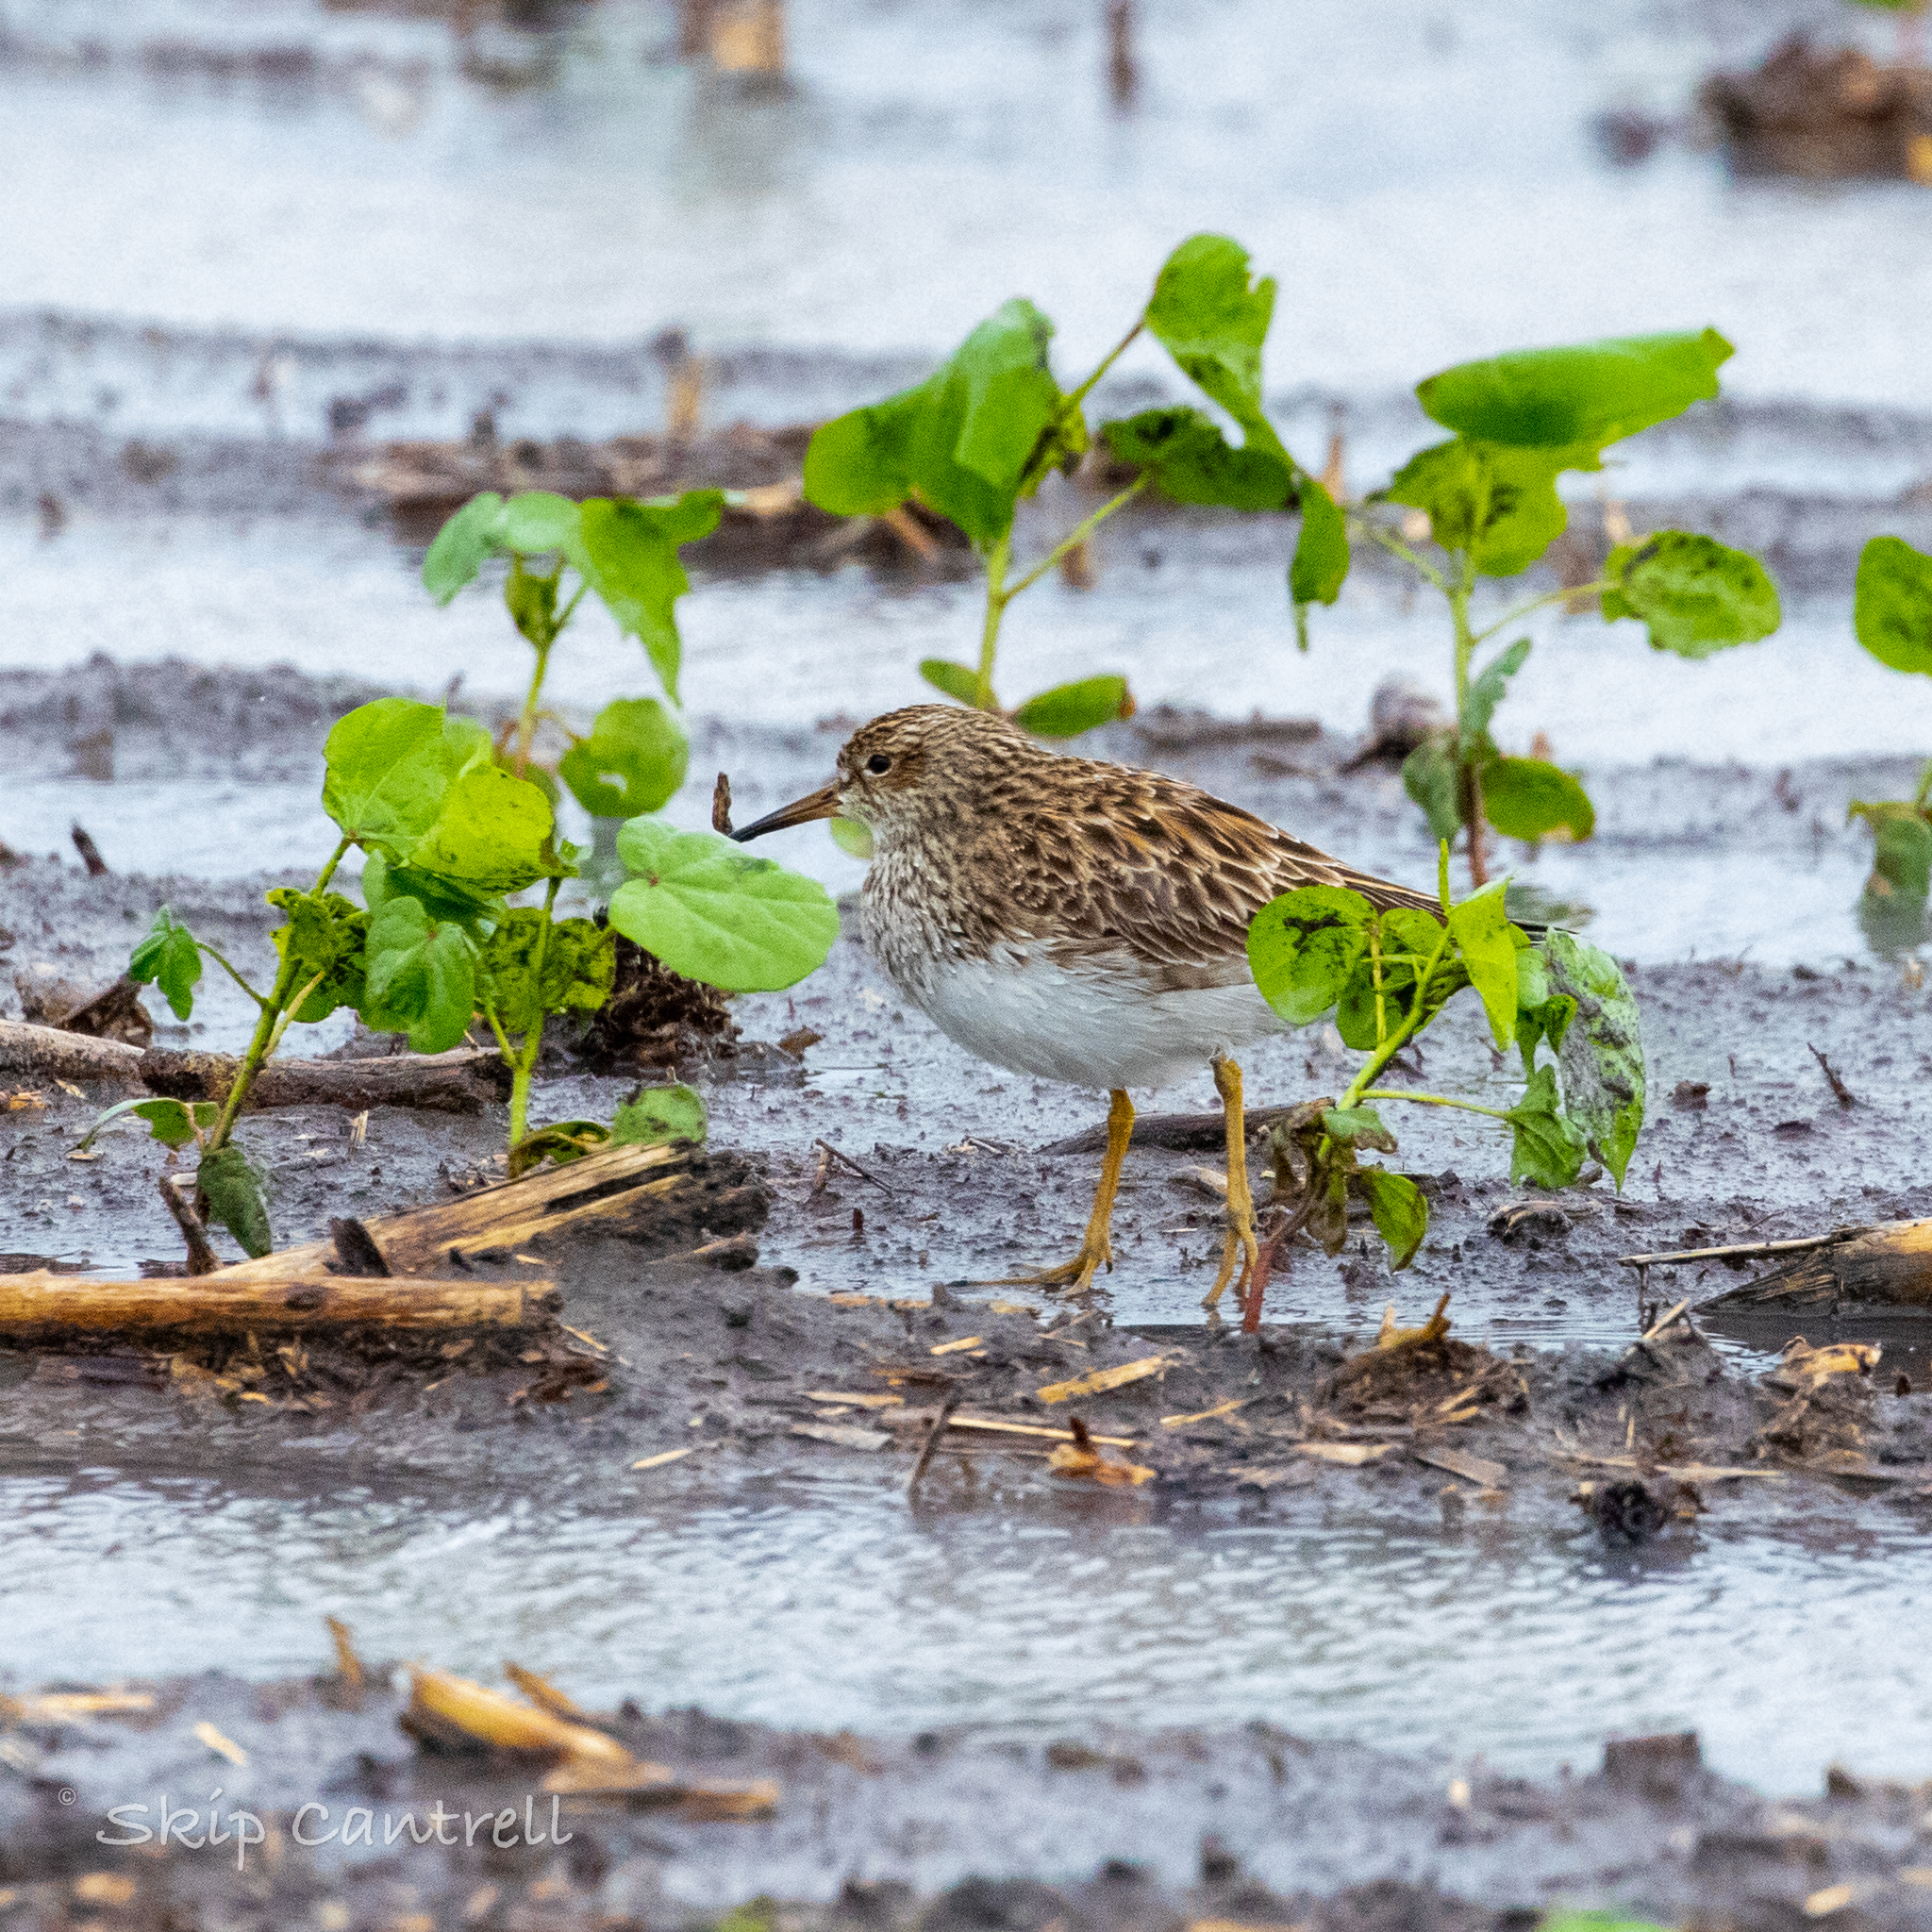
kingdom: Animalia
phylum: Chordata
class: Aves
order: Charadriiformes
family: Scolopacidae
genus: Calidris
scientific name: Calidris melanotos
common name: Pectoral sandpiper
